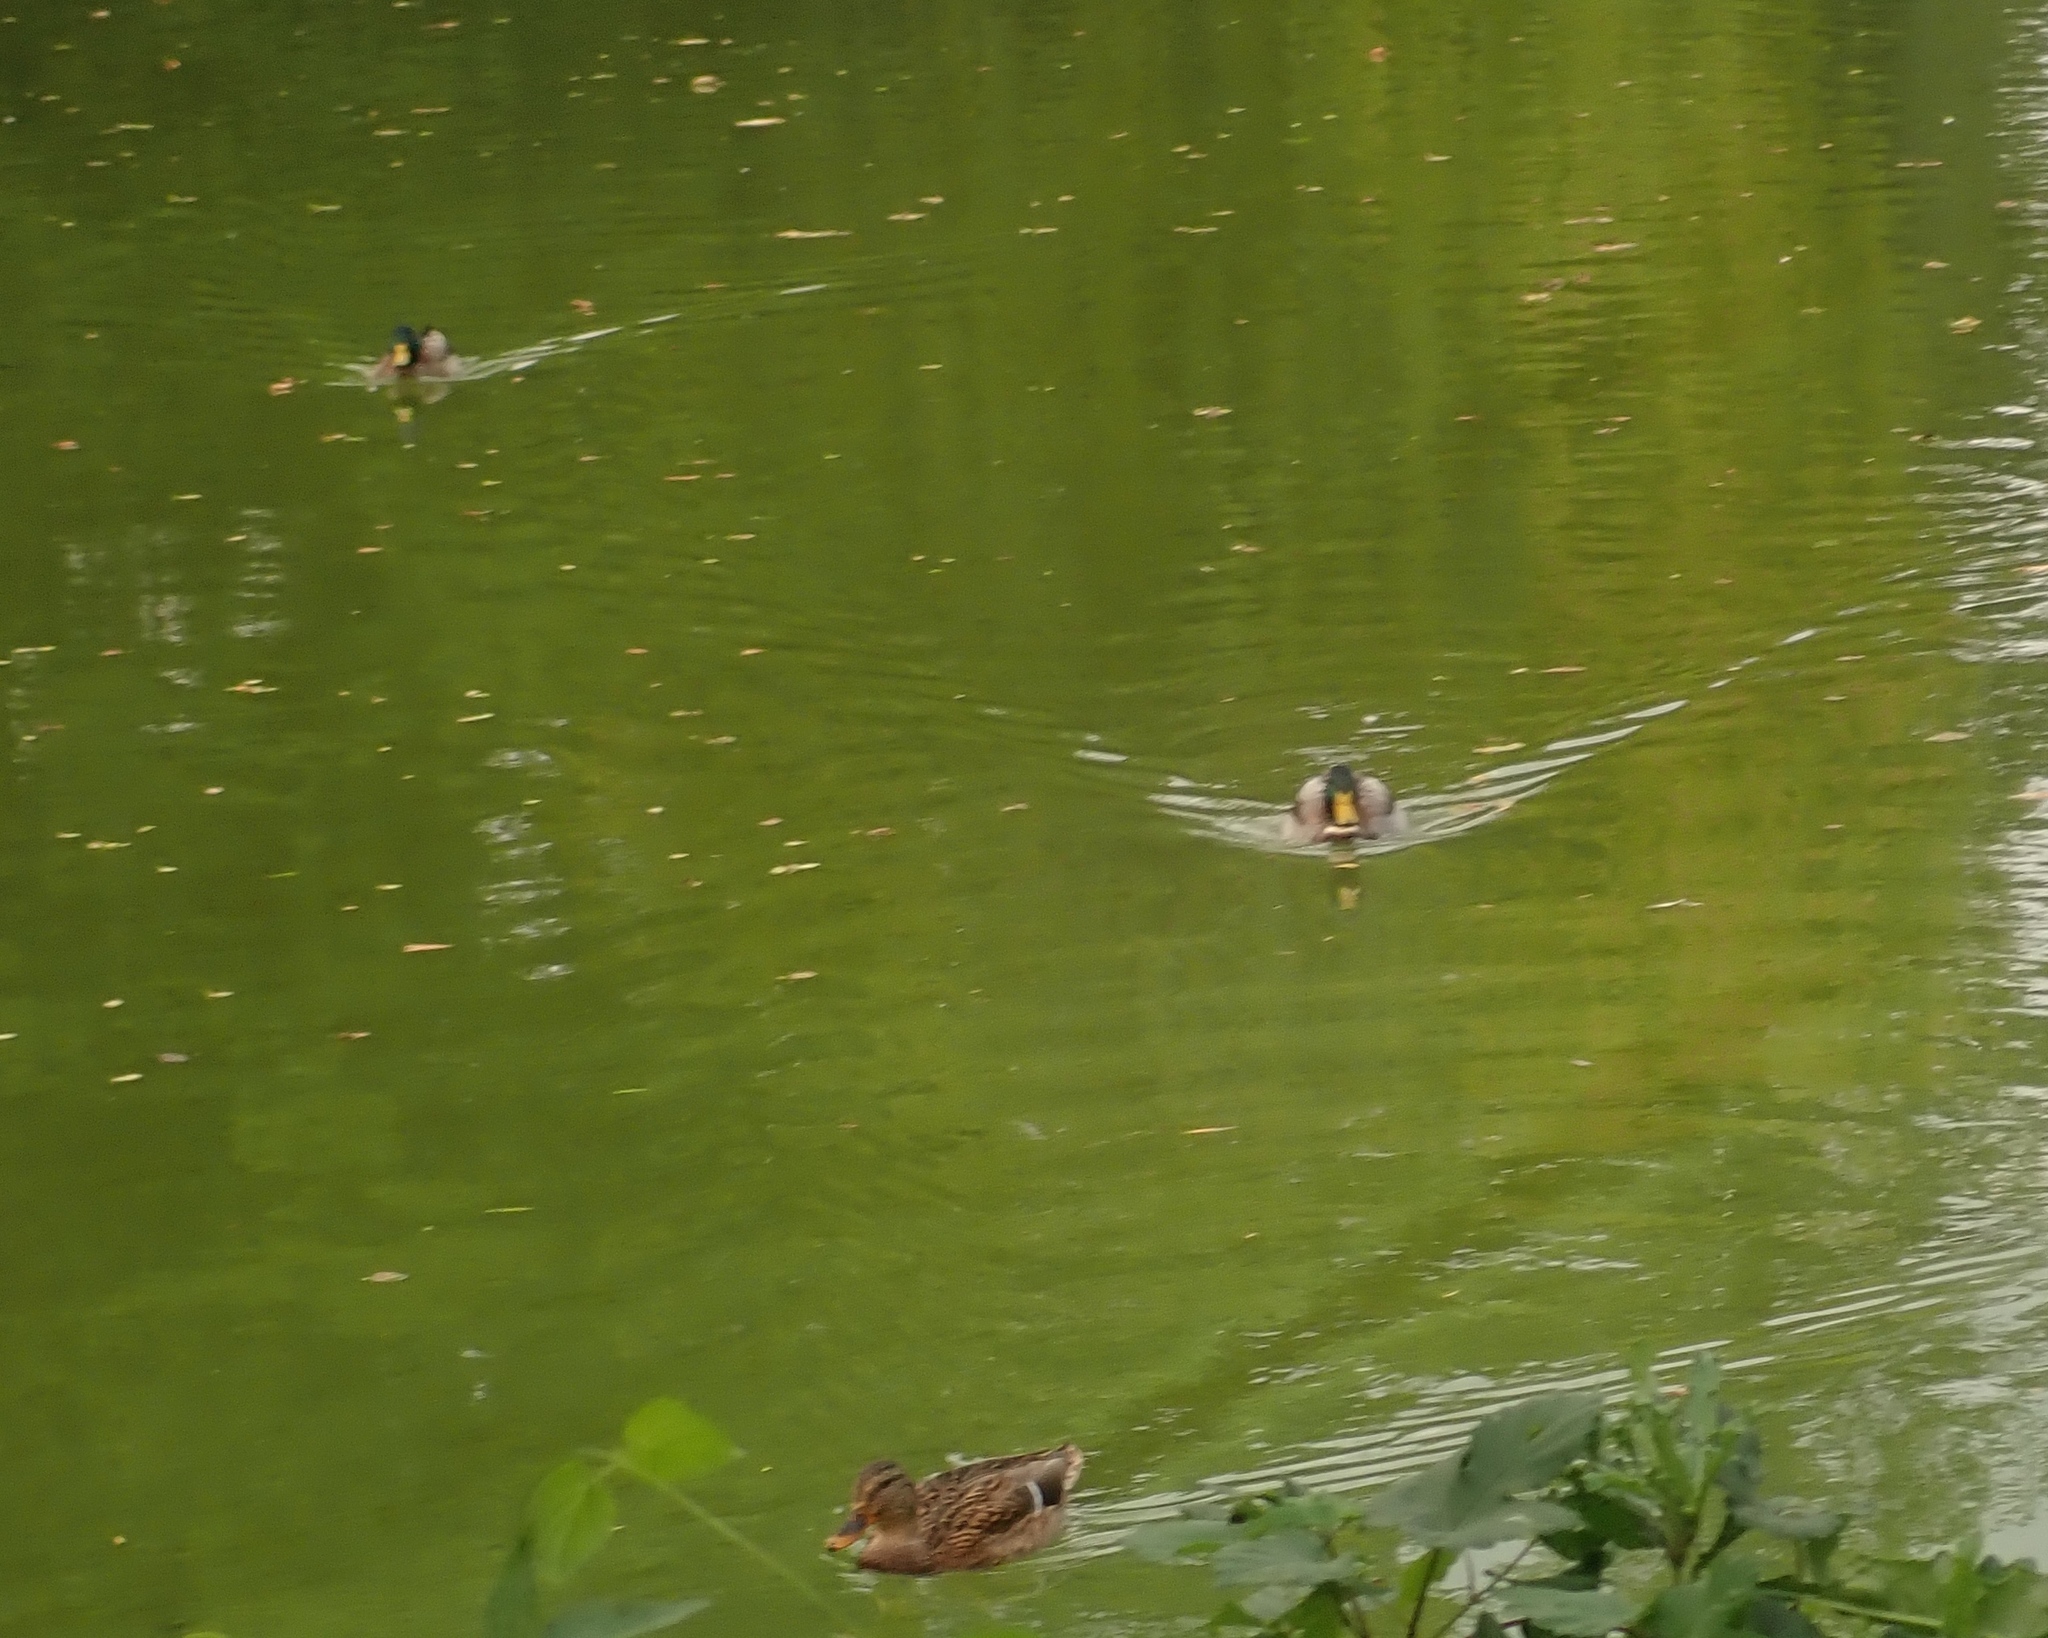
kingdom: Animalia
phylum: Chordata
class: Aves
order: Anseriformes
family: Anatidae
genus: Anas
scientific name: Anas platyrhynchos
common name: Mallard
